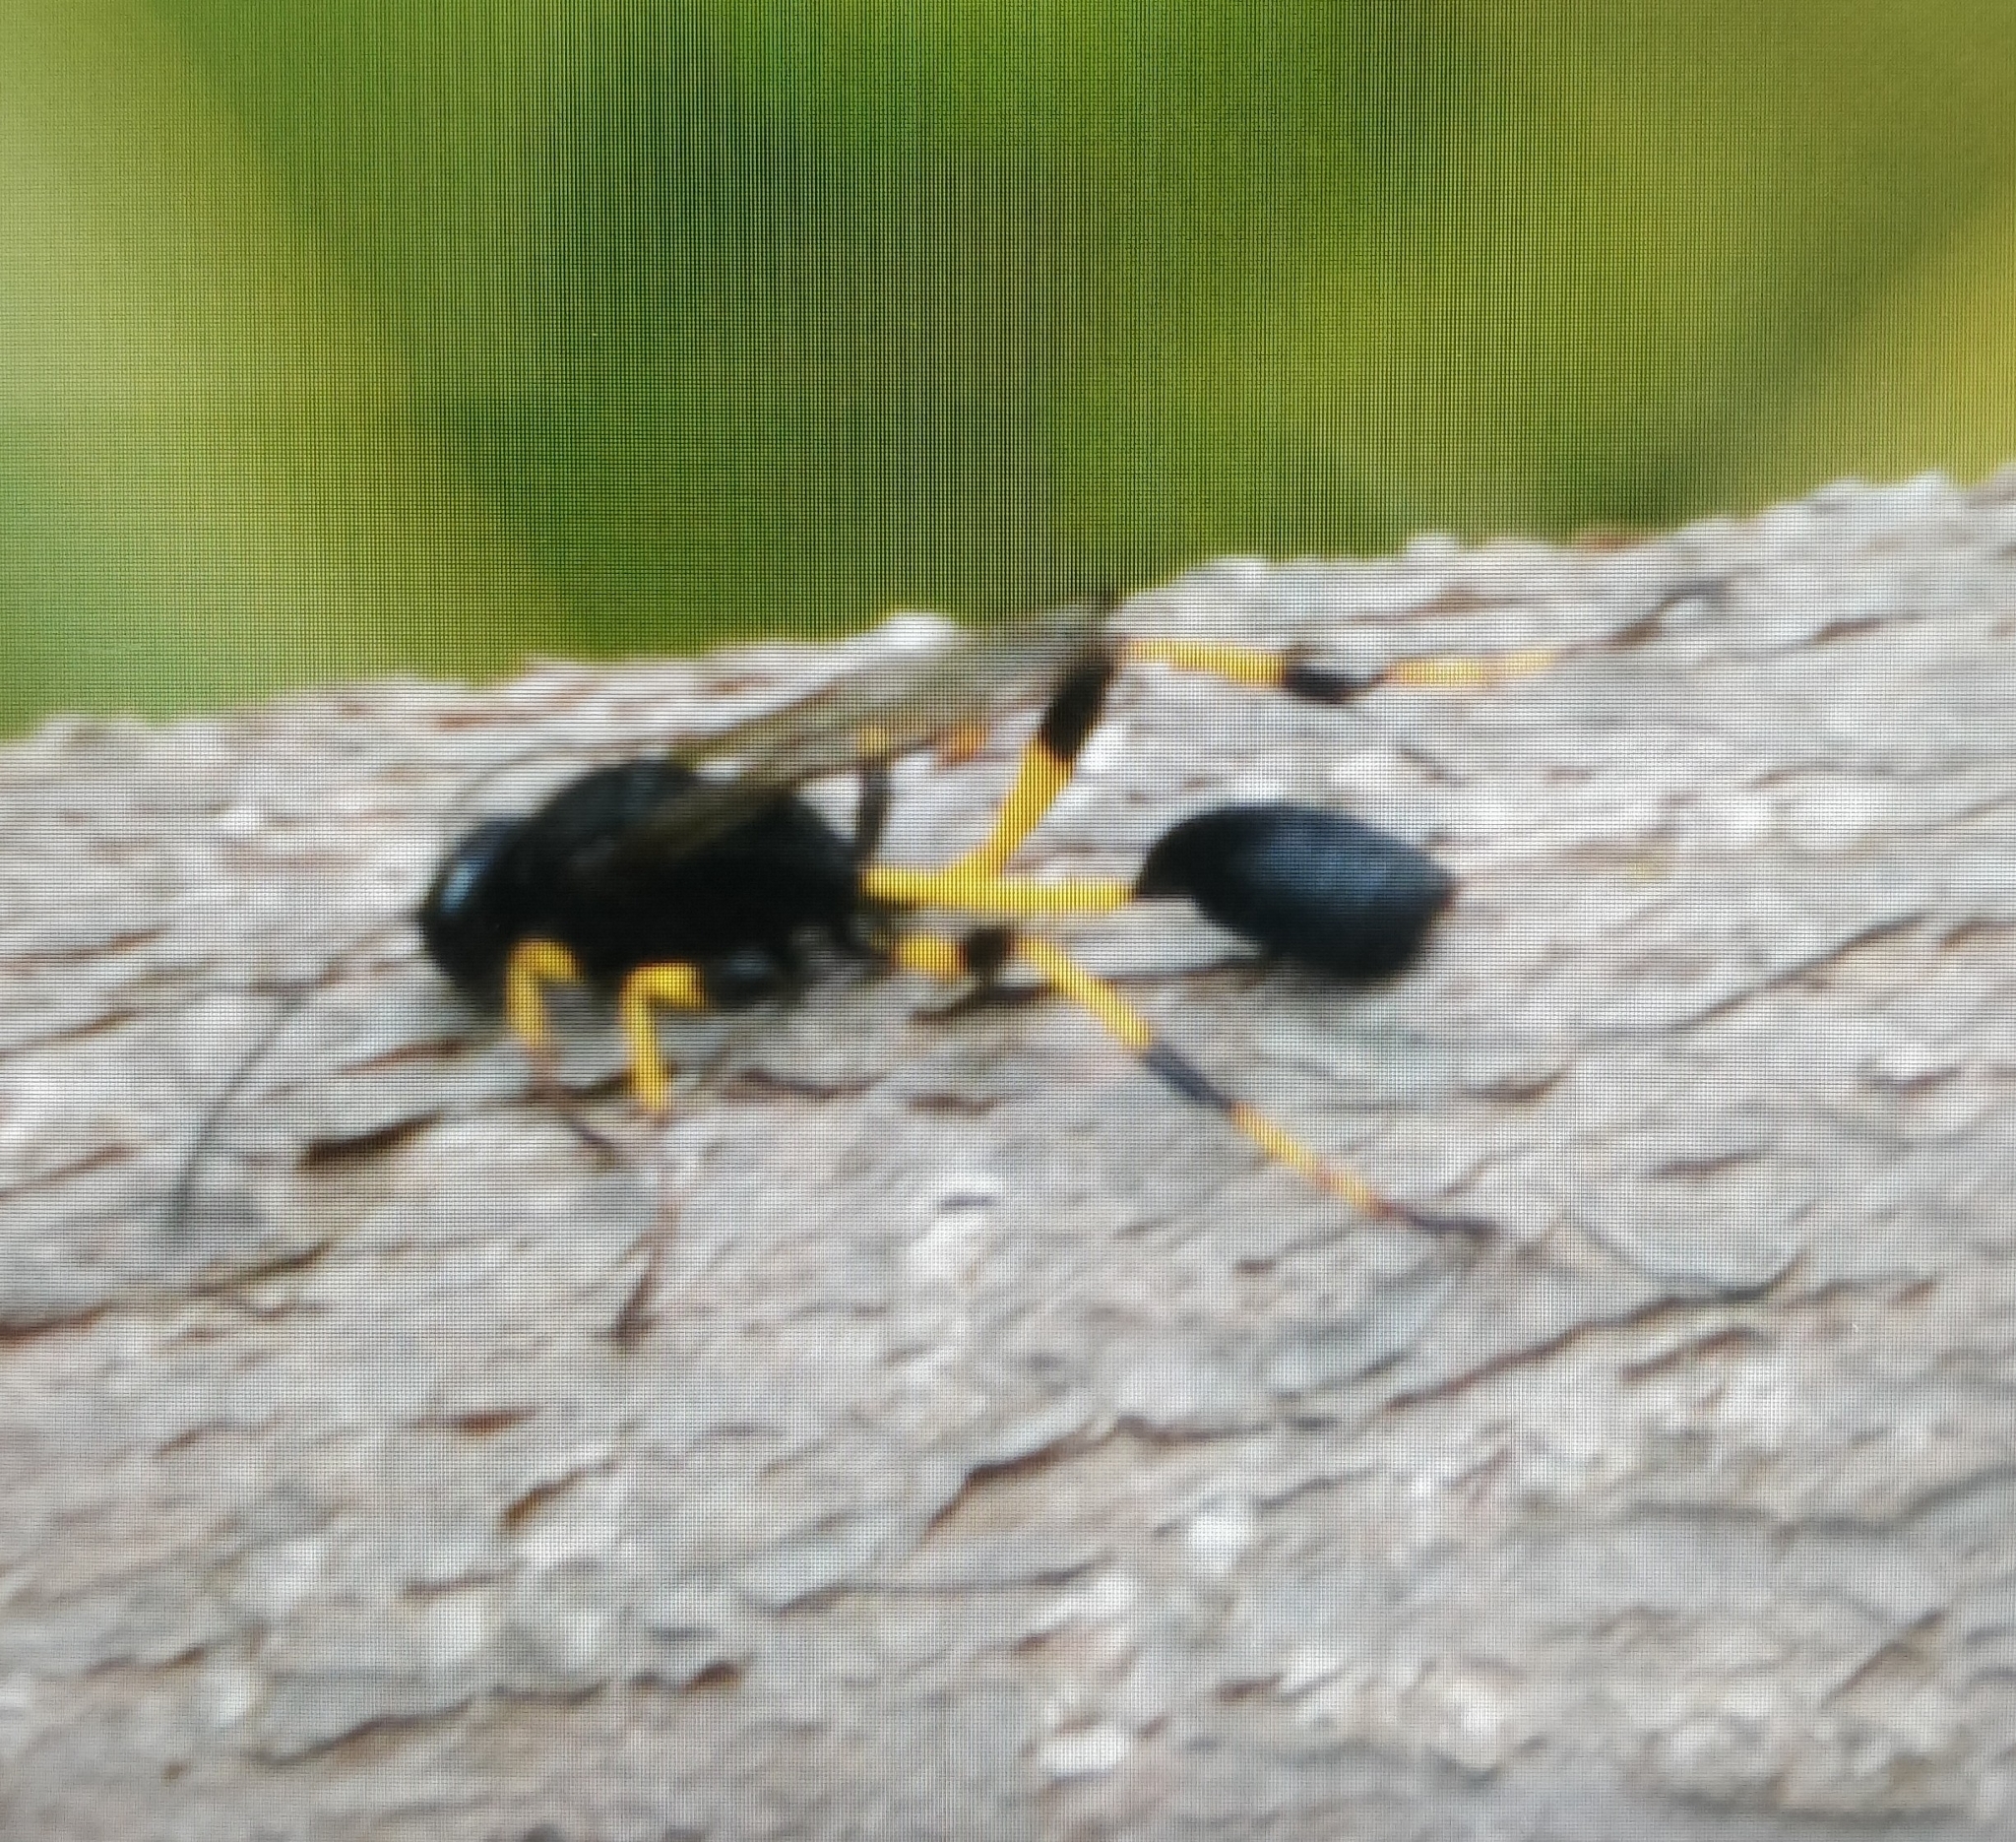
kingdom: Animalia
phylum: Arthropoda
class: Insecta
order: Hymenoptera
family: Sphecidae
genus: Sceliphron
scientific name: Sceliphron spirifex
